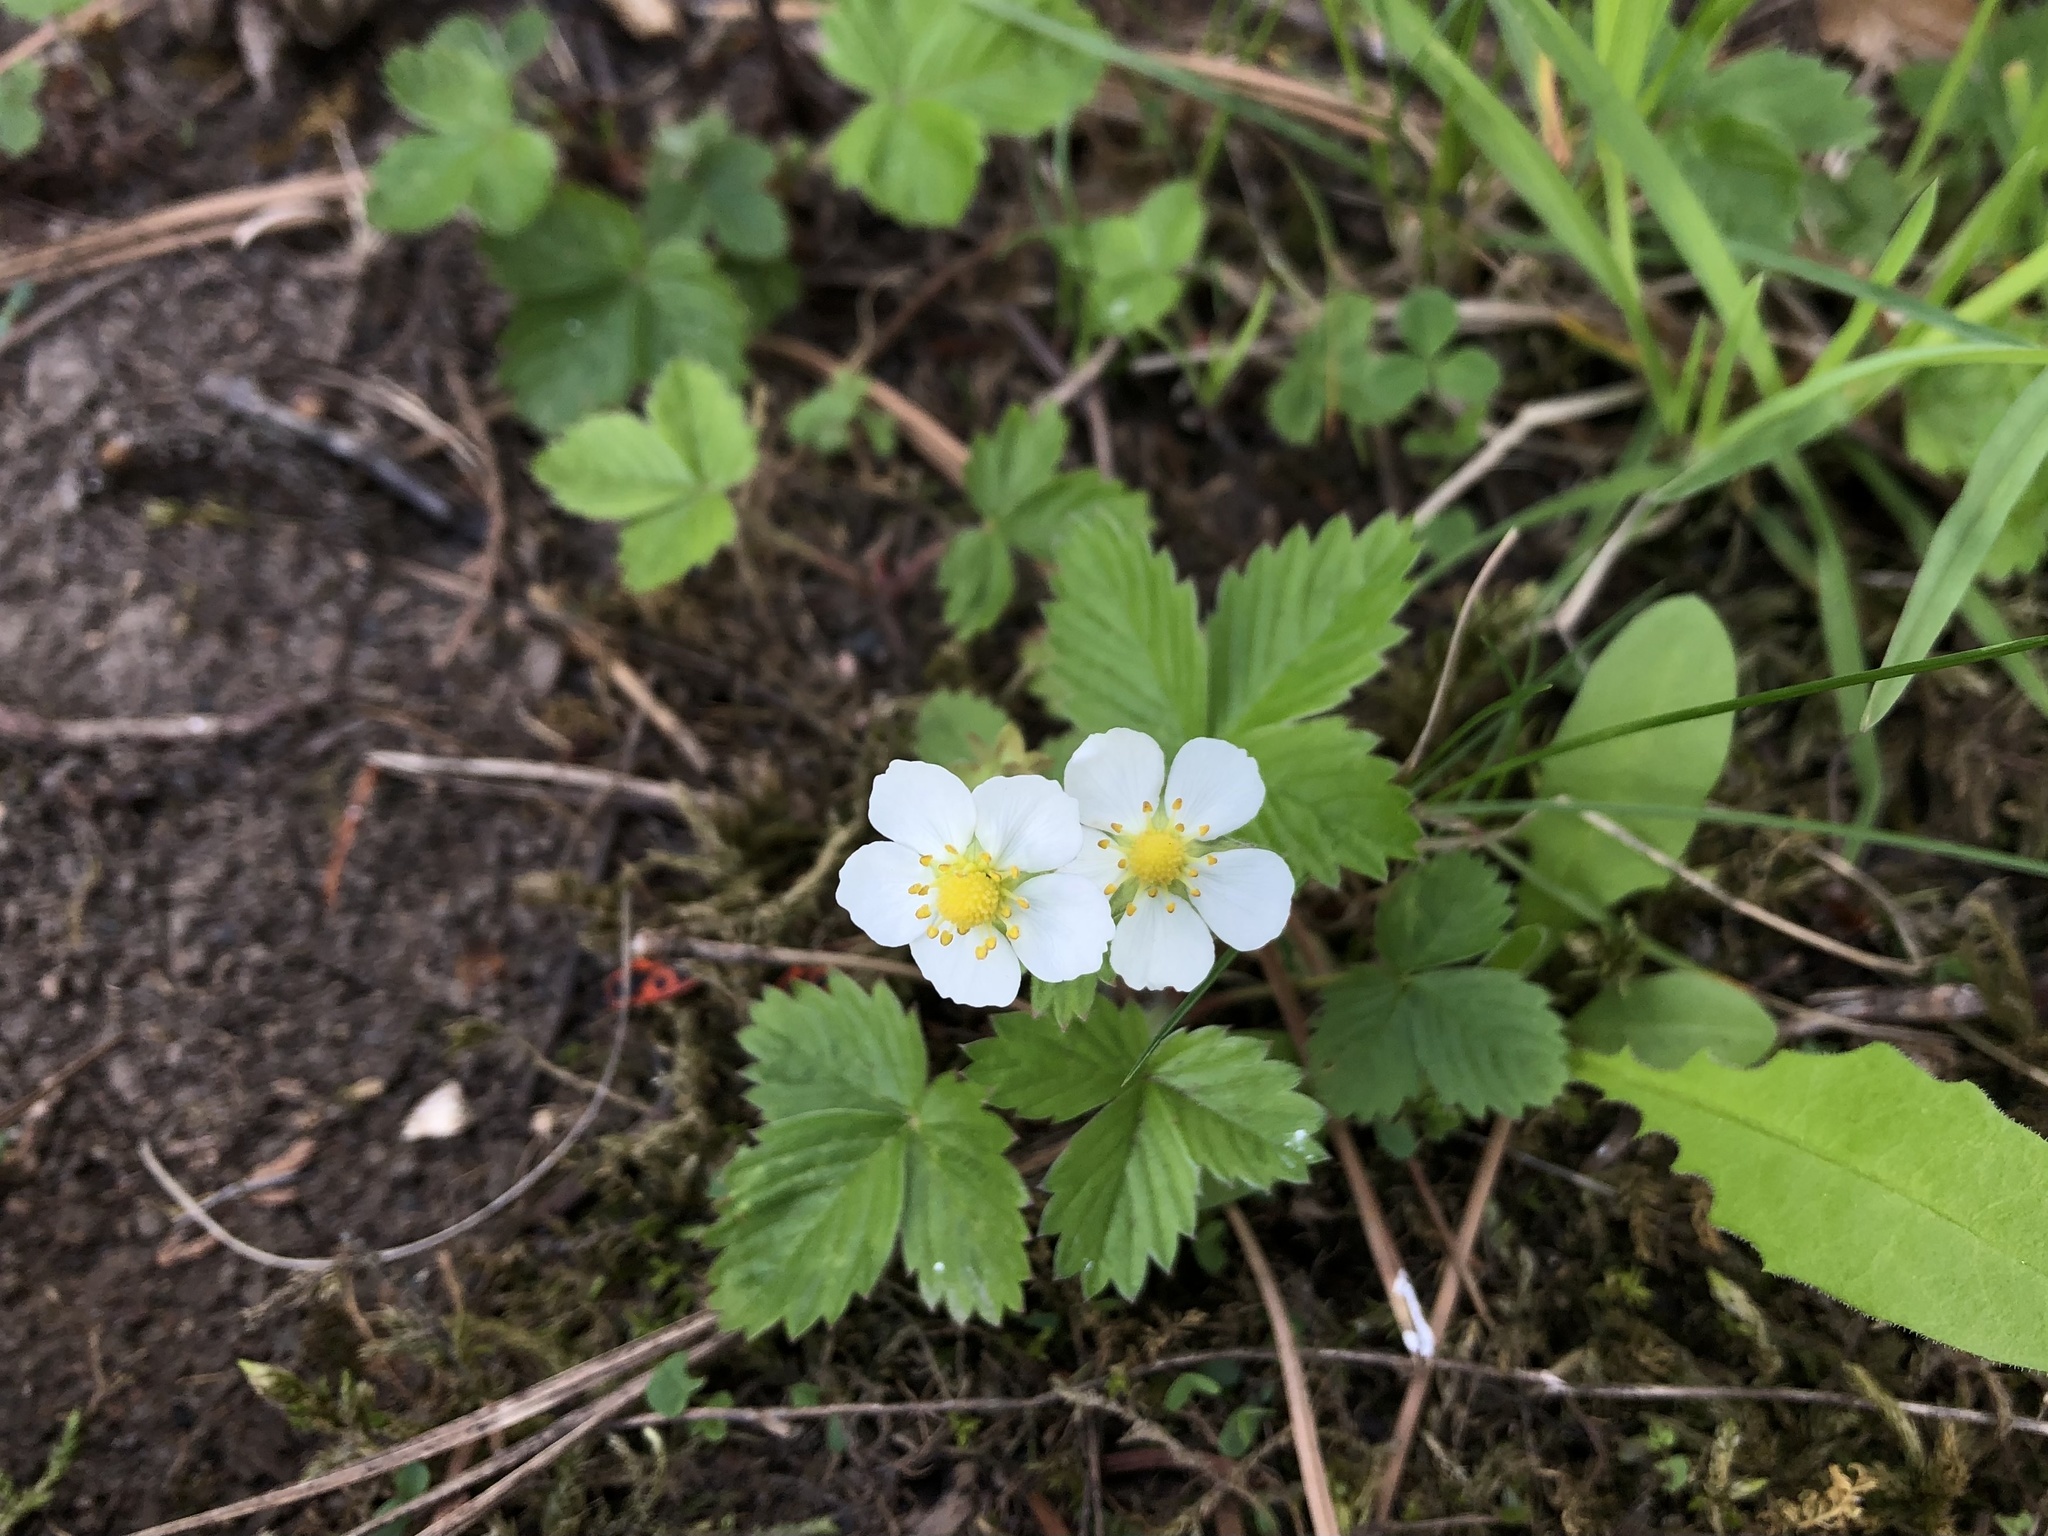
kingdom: Plantae
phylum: Tracheophyta
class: Magnoliopsida
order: Rosales
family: Rosaceae
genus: Fragaria
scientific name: Fragaria vesca
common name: Wild strawberry
